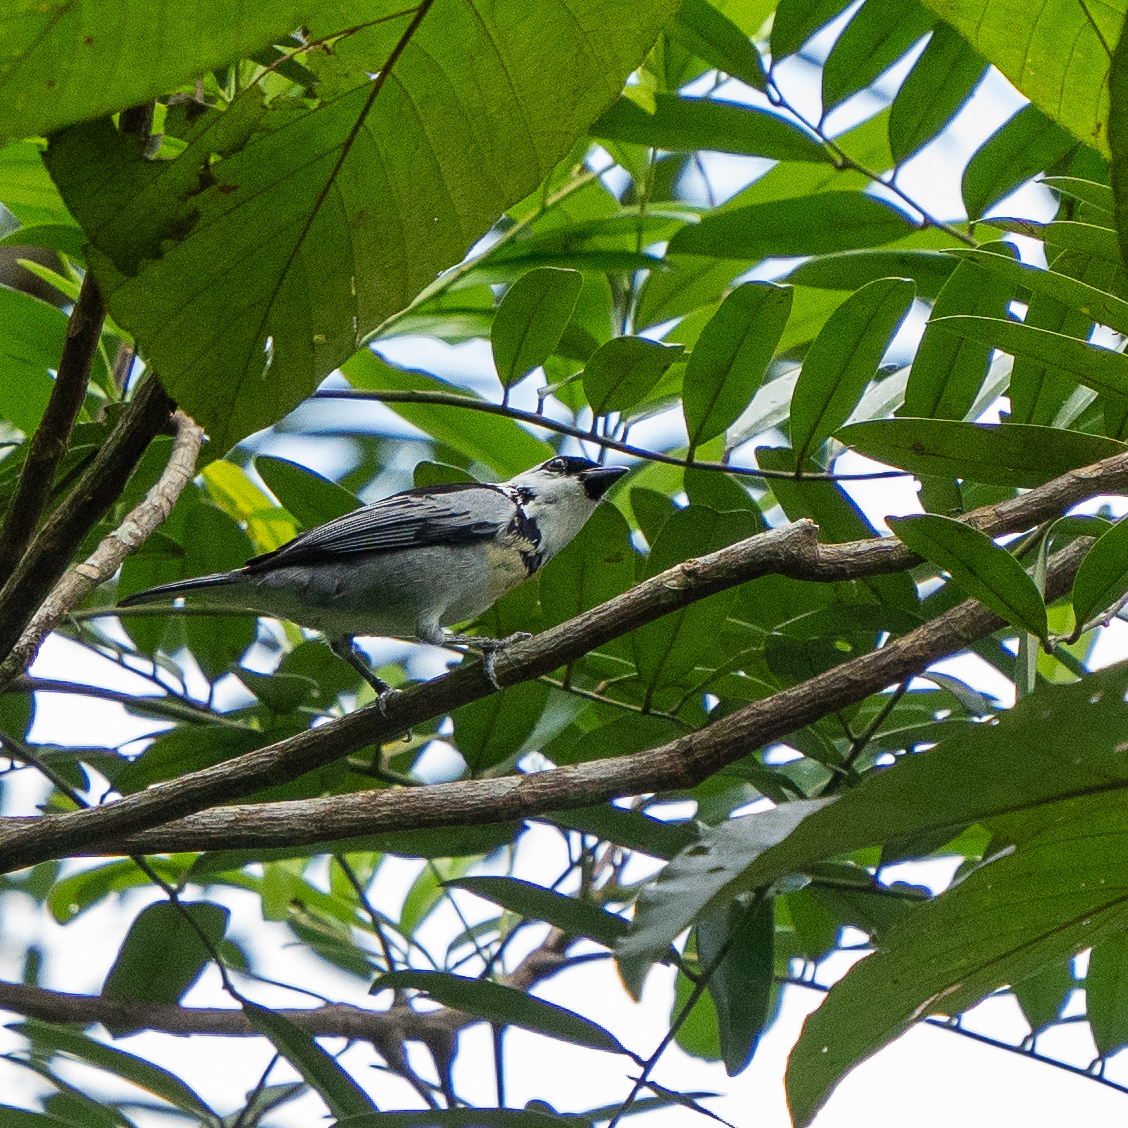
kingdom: Animalia
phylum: Chordata
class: Aves
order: Passeriformes
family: Thraupidae
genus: Poecilostreptus
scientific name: Poecilostreptus palmeri
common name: Grey-and-gold tanager
